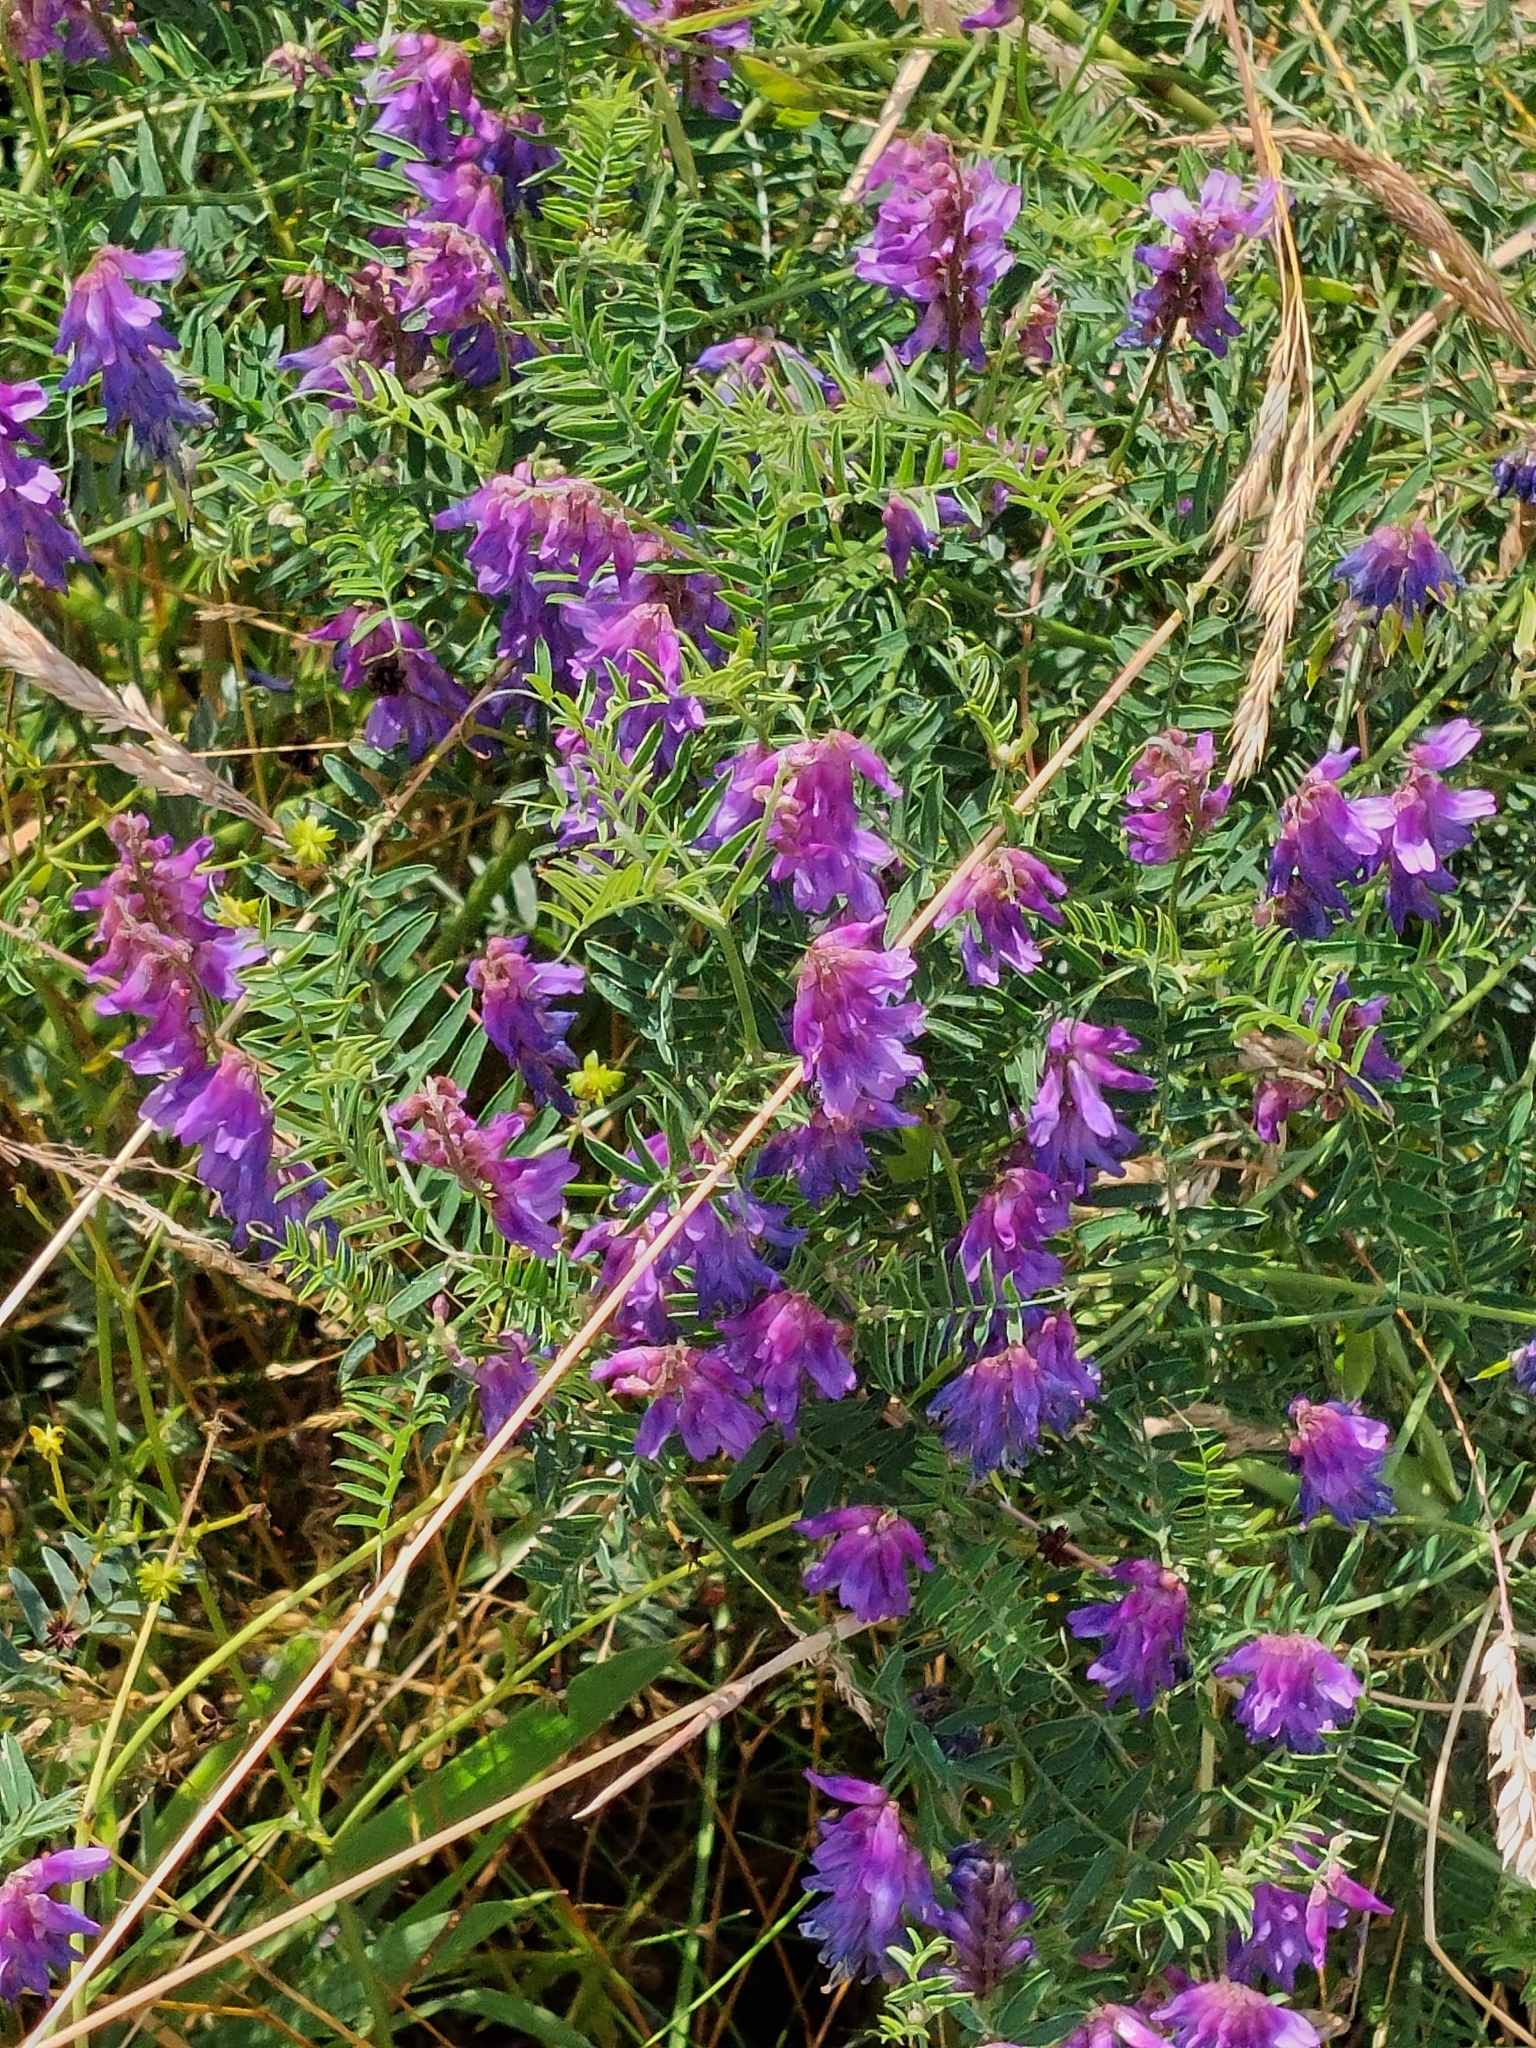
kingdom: Plantae
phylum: Tracheophyta
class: Magnoliopsida
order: Fabales
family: Fabaceae
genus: Vicia
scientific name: Vicia cracca
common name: Bird vetch
